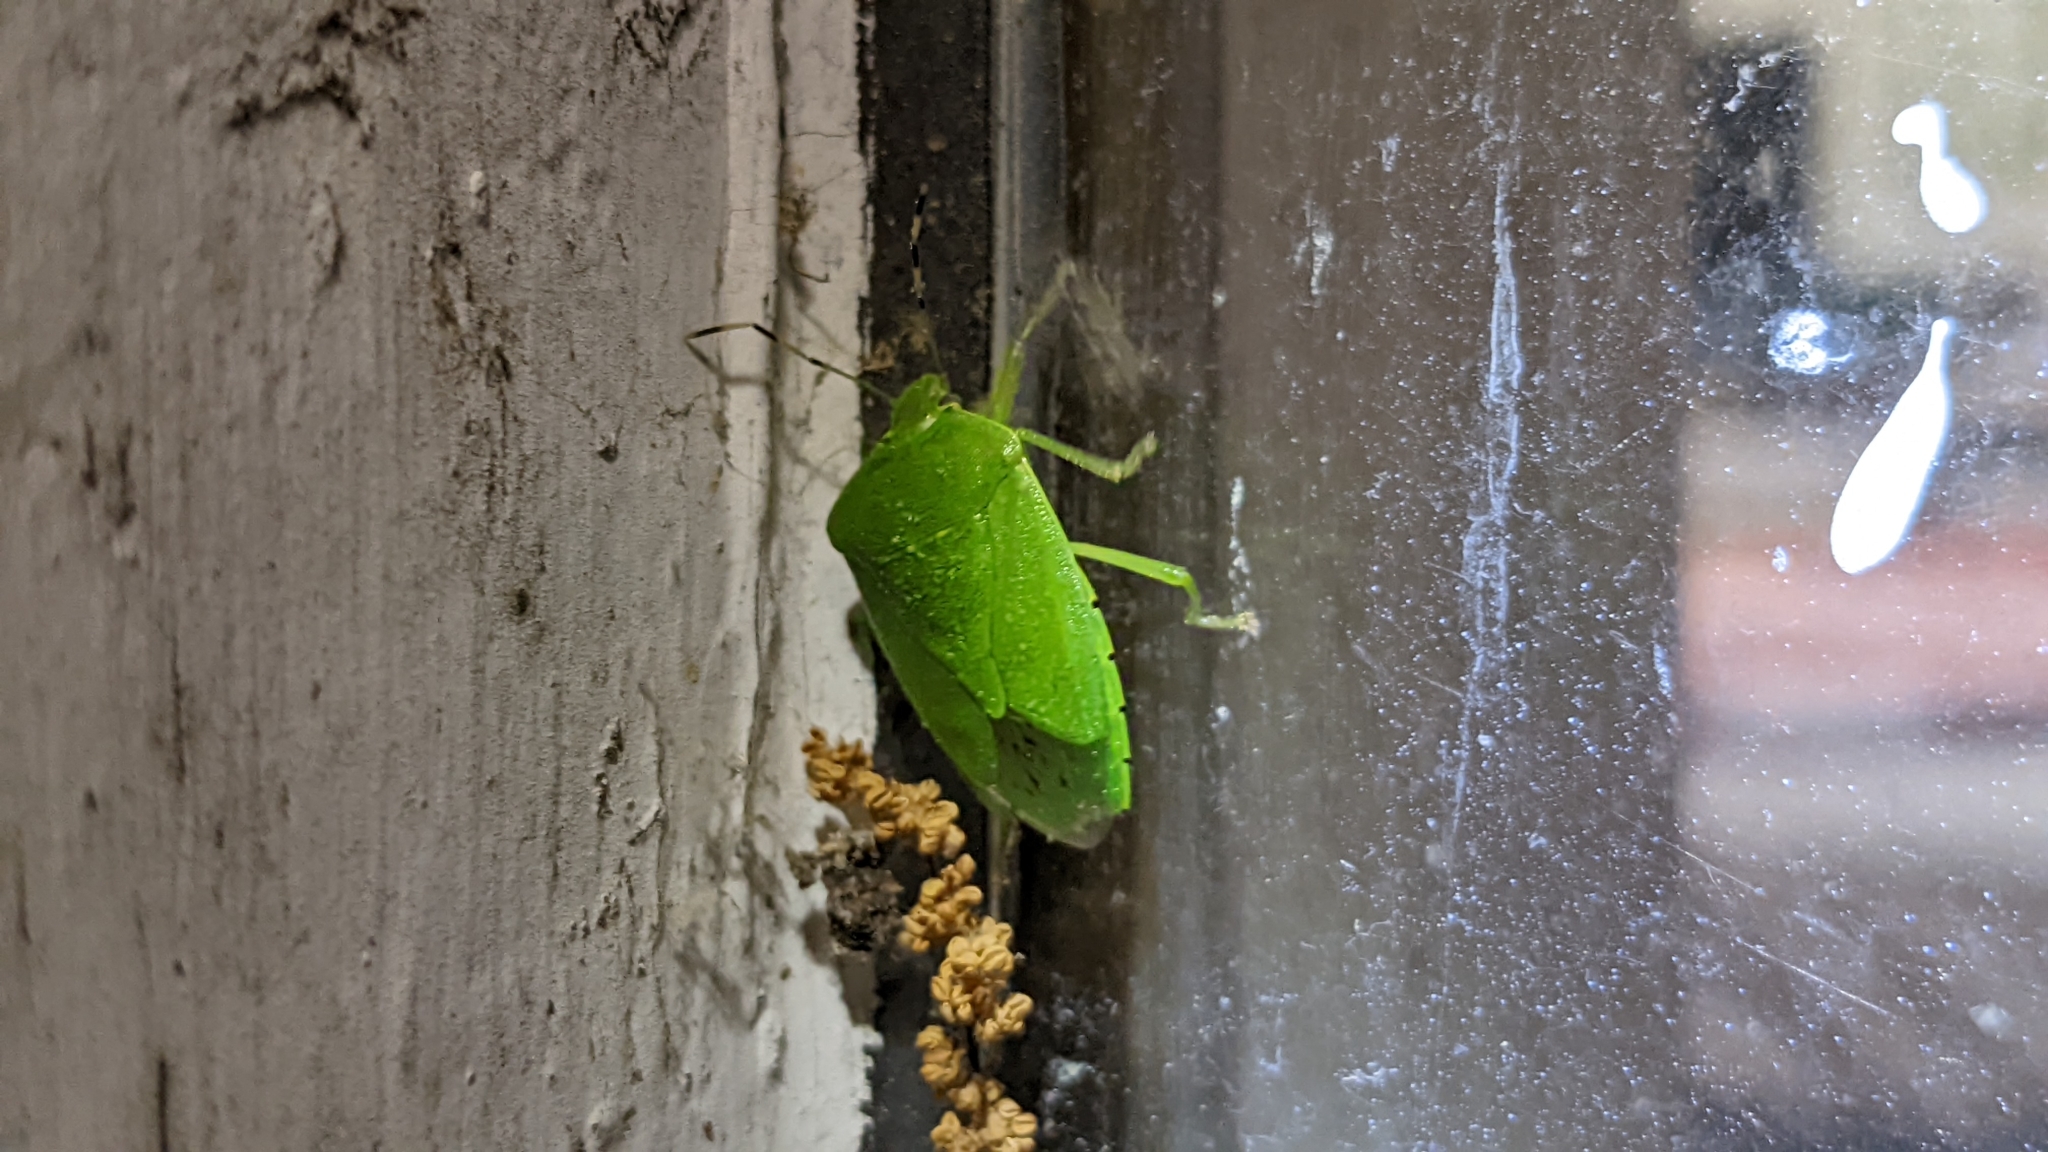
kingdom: Animalia
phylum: Arthropoda
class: Insecta
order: Hemiptera
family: Pentatomidae
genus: Chinavia
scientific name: Chinavia hilaris
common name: Green stink bug
